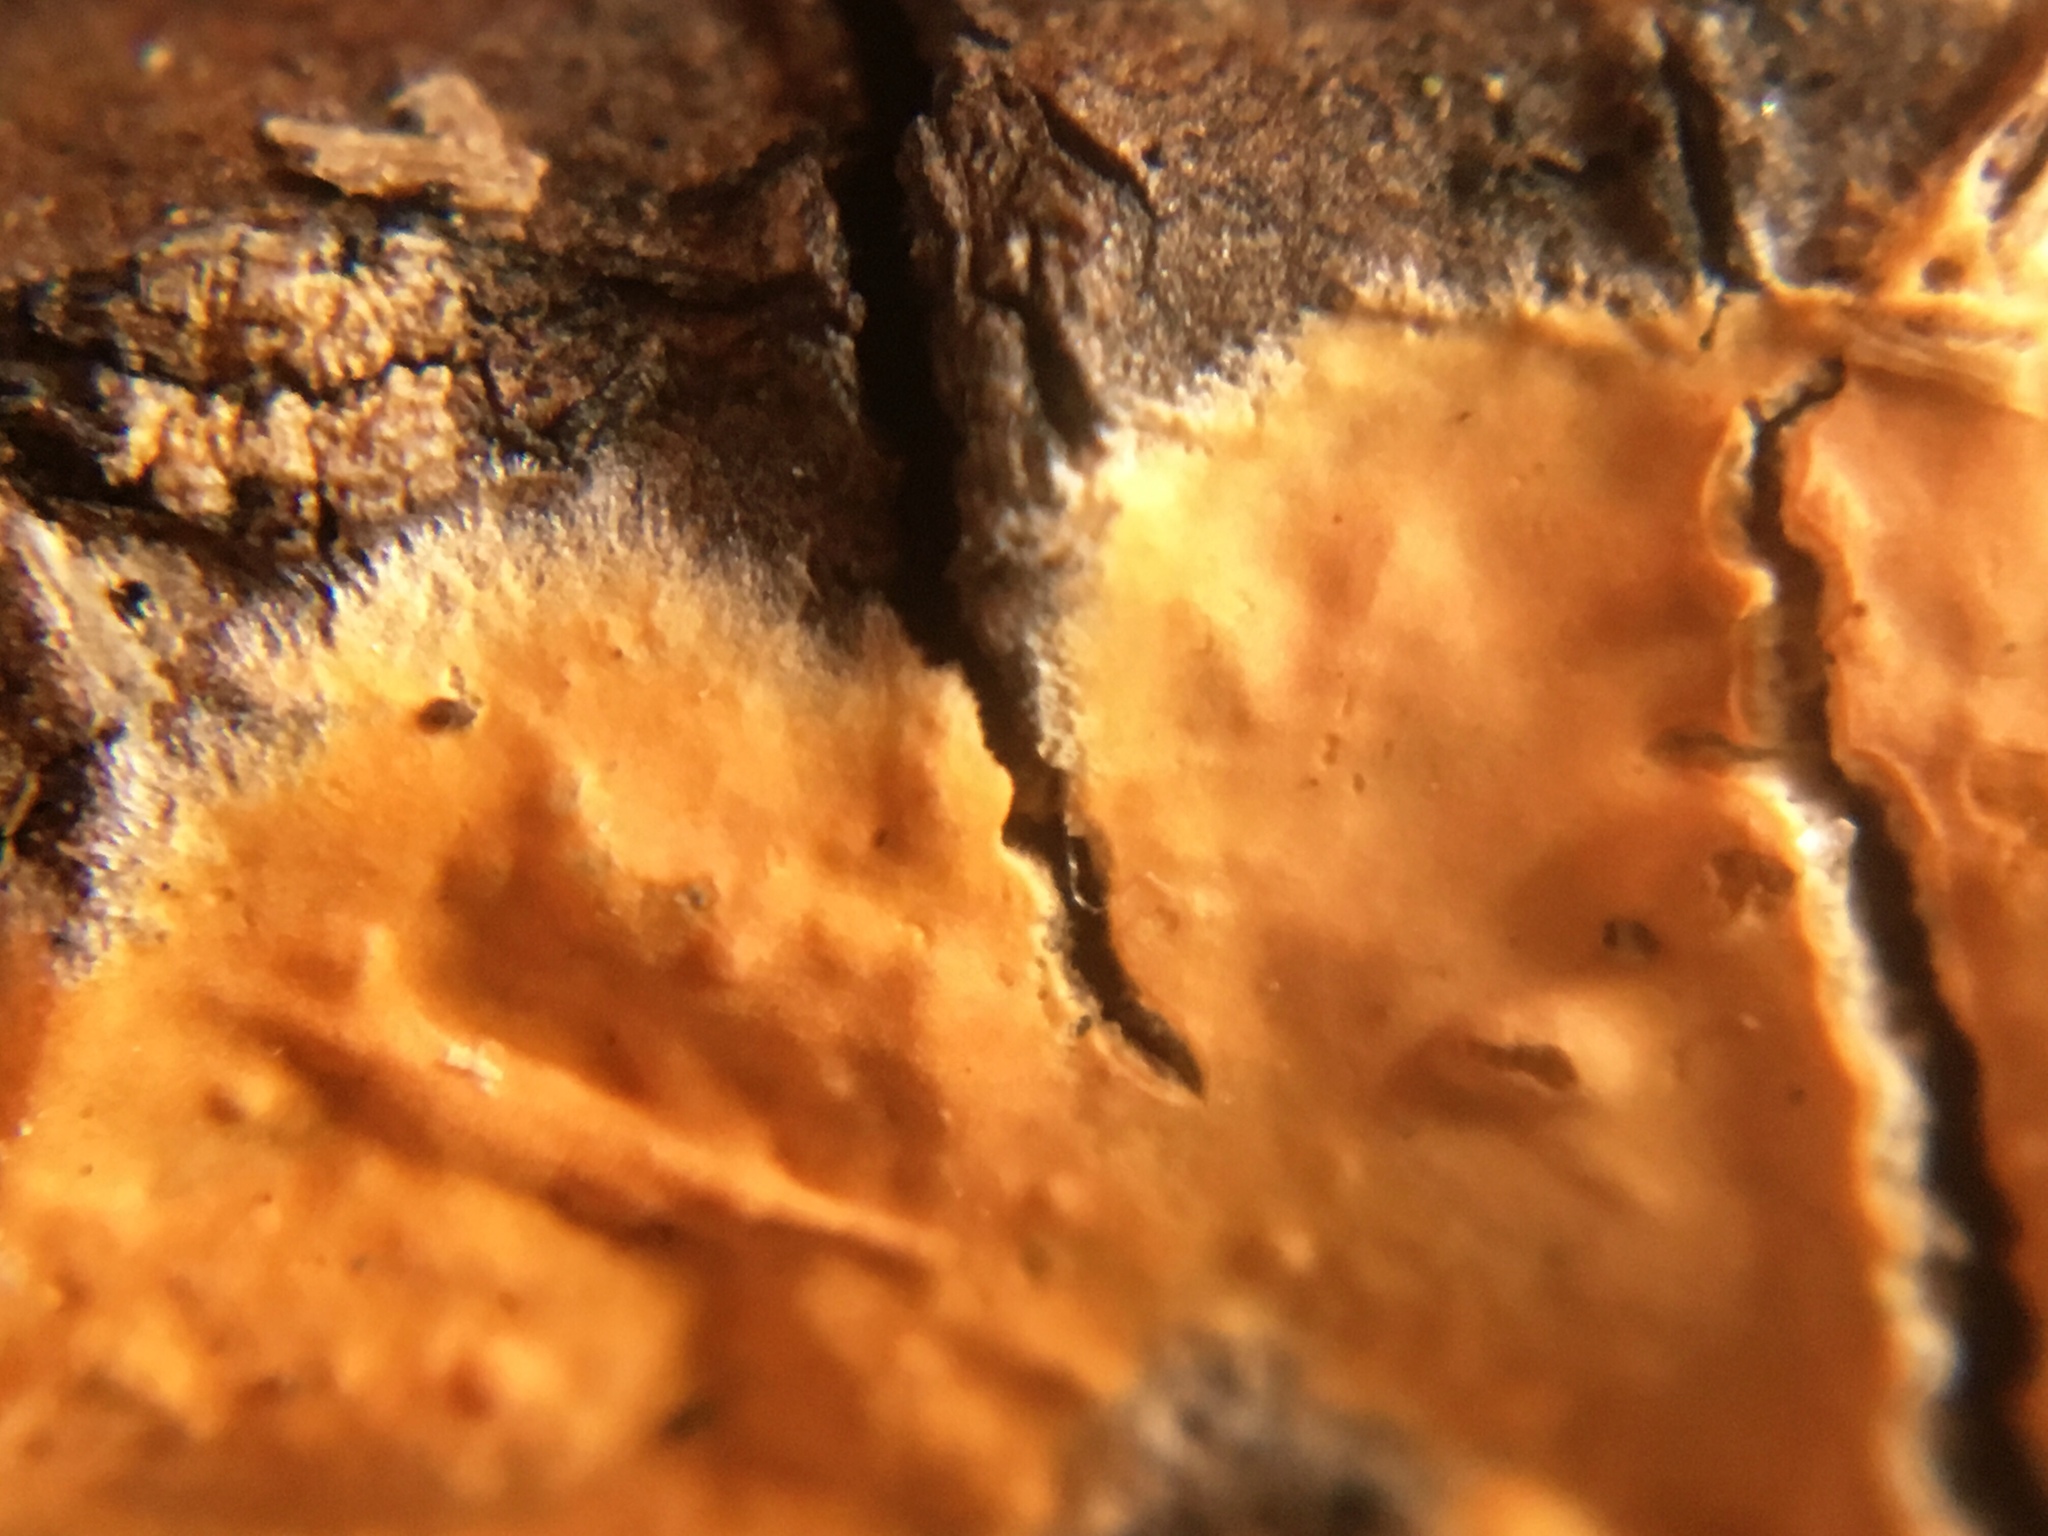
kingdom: Fungi
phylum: Basidiomycota
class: Agaricomycetes
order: Polyporales
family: Steccherinaceae
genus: Steccherinum
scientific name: Steccherinum ochraceum
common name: Ochre spreading tooth
